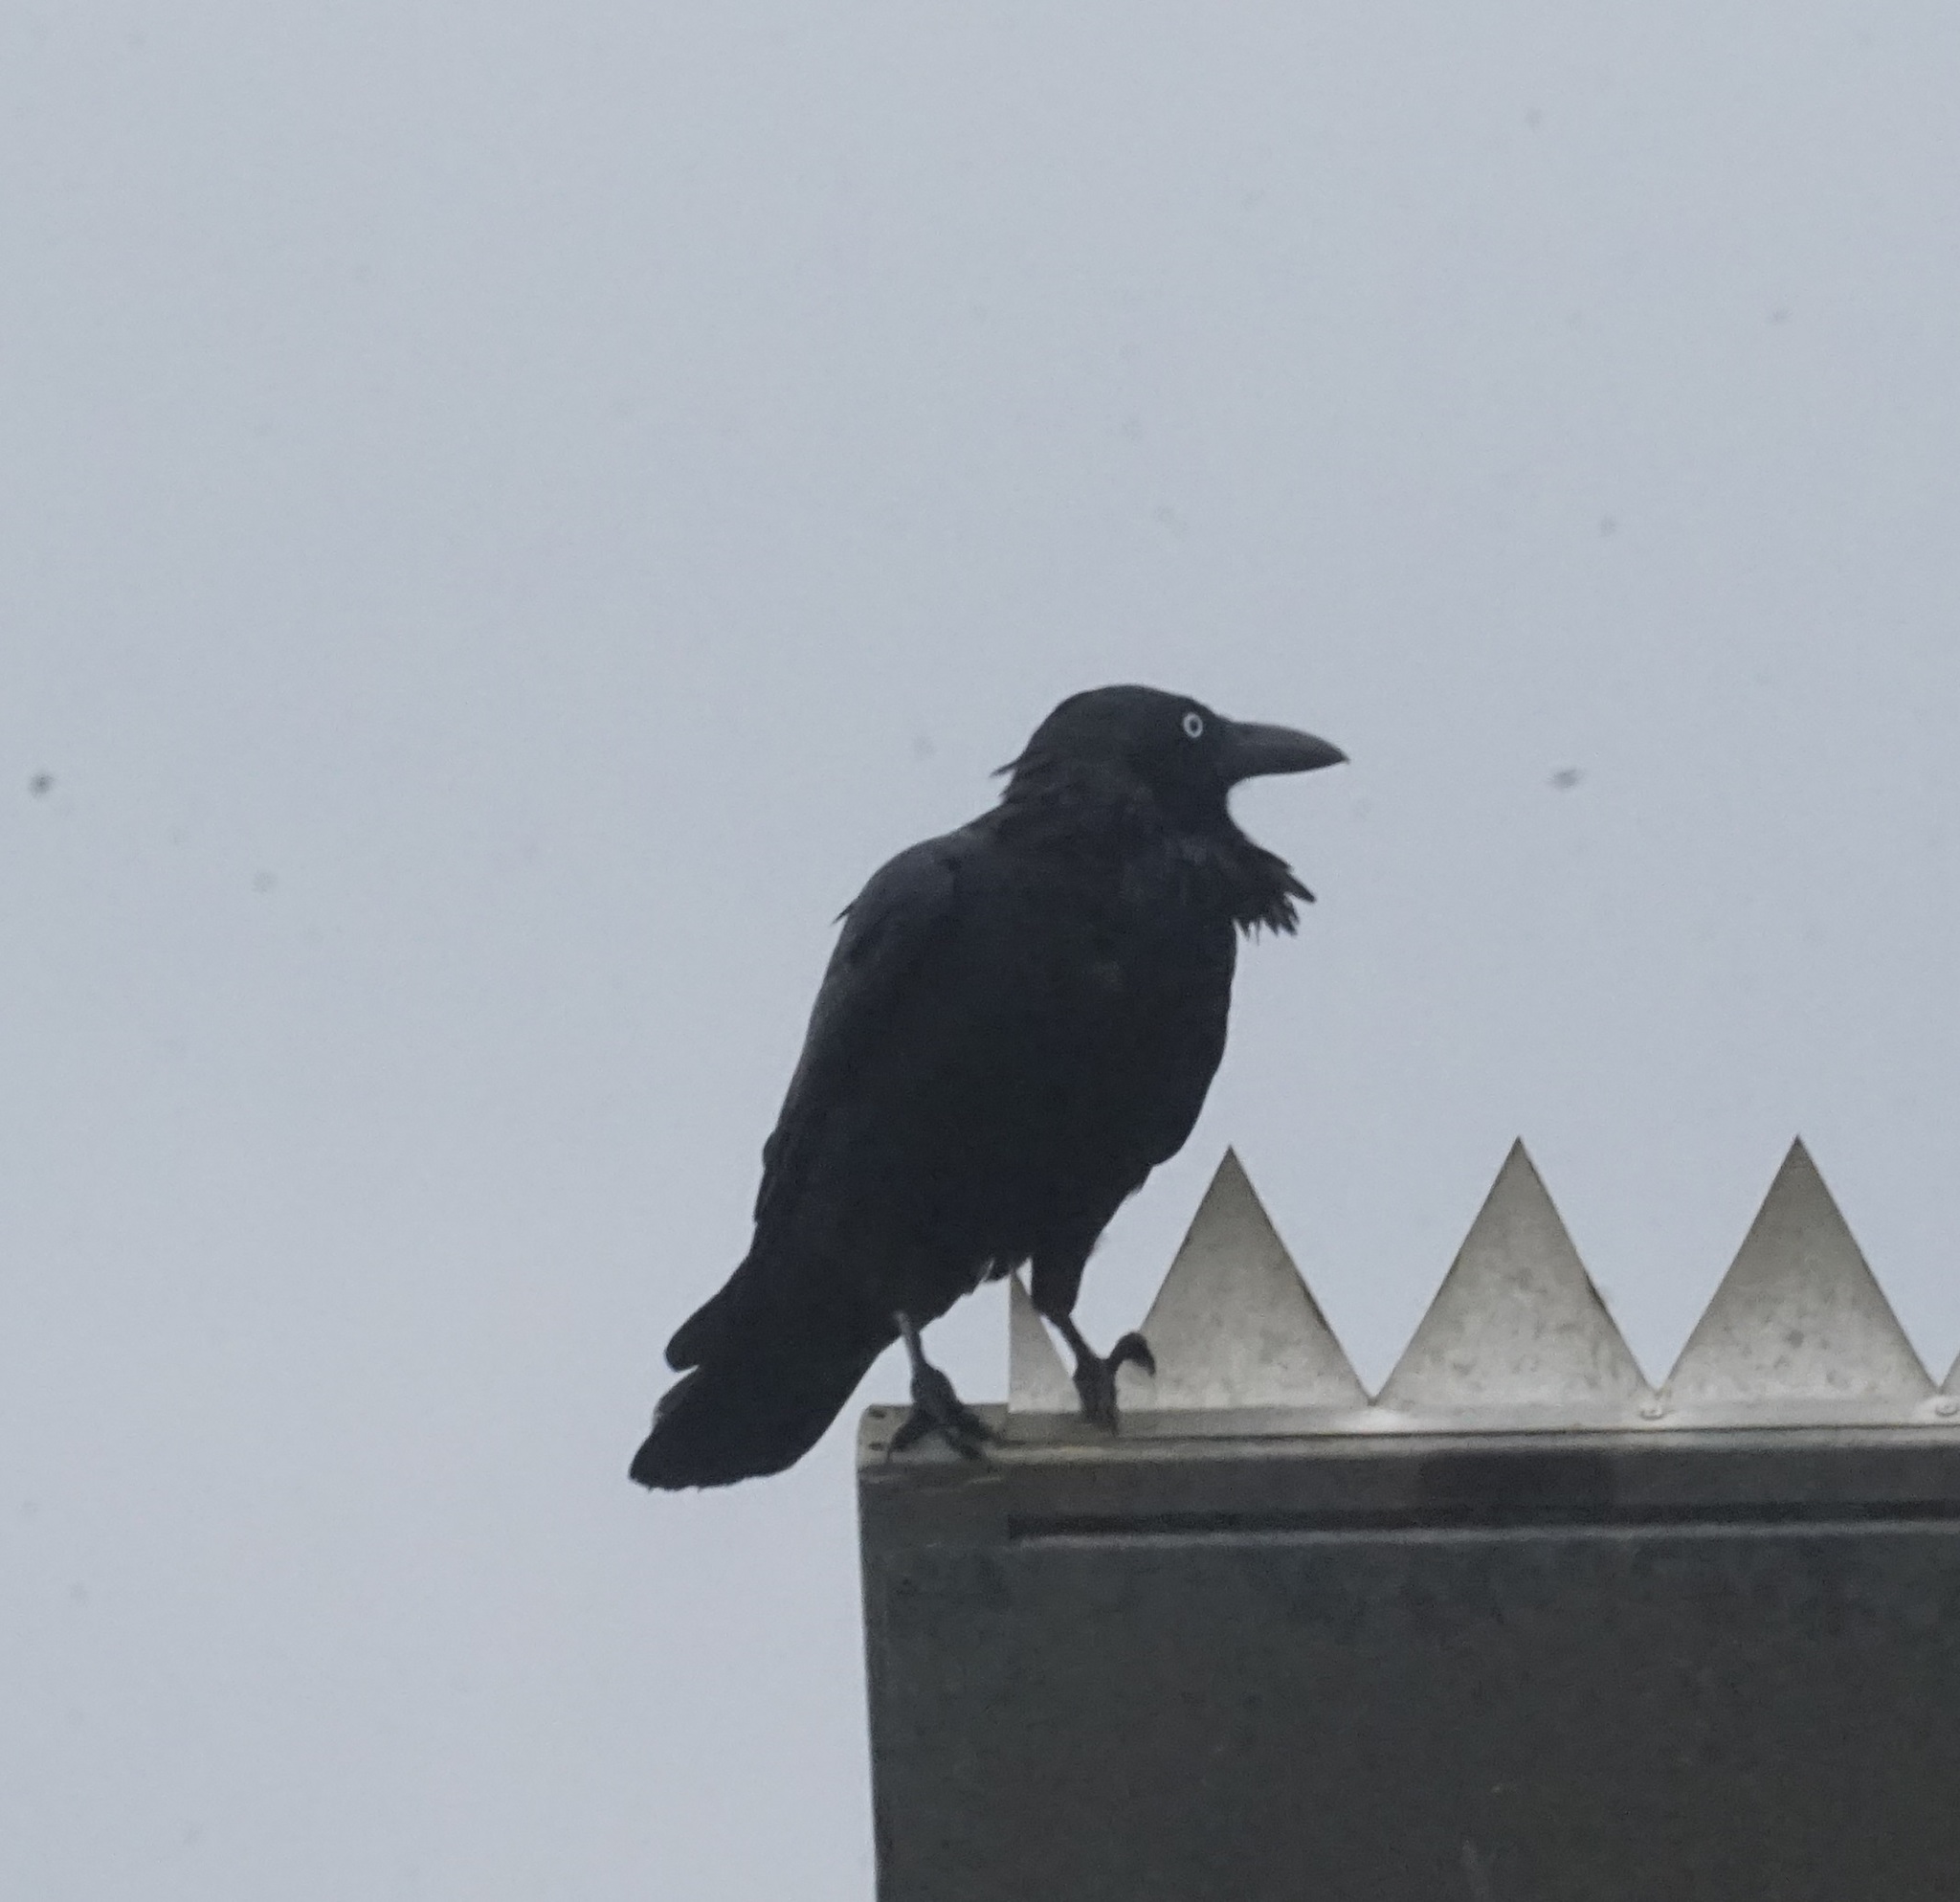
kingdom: Animalia
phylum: Chordata
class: Aves
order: Passeriformes
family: Corvidae
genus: Corvus
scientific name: Corvus coronoides
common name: Australian raven
